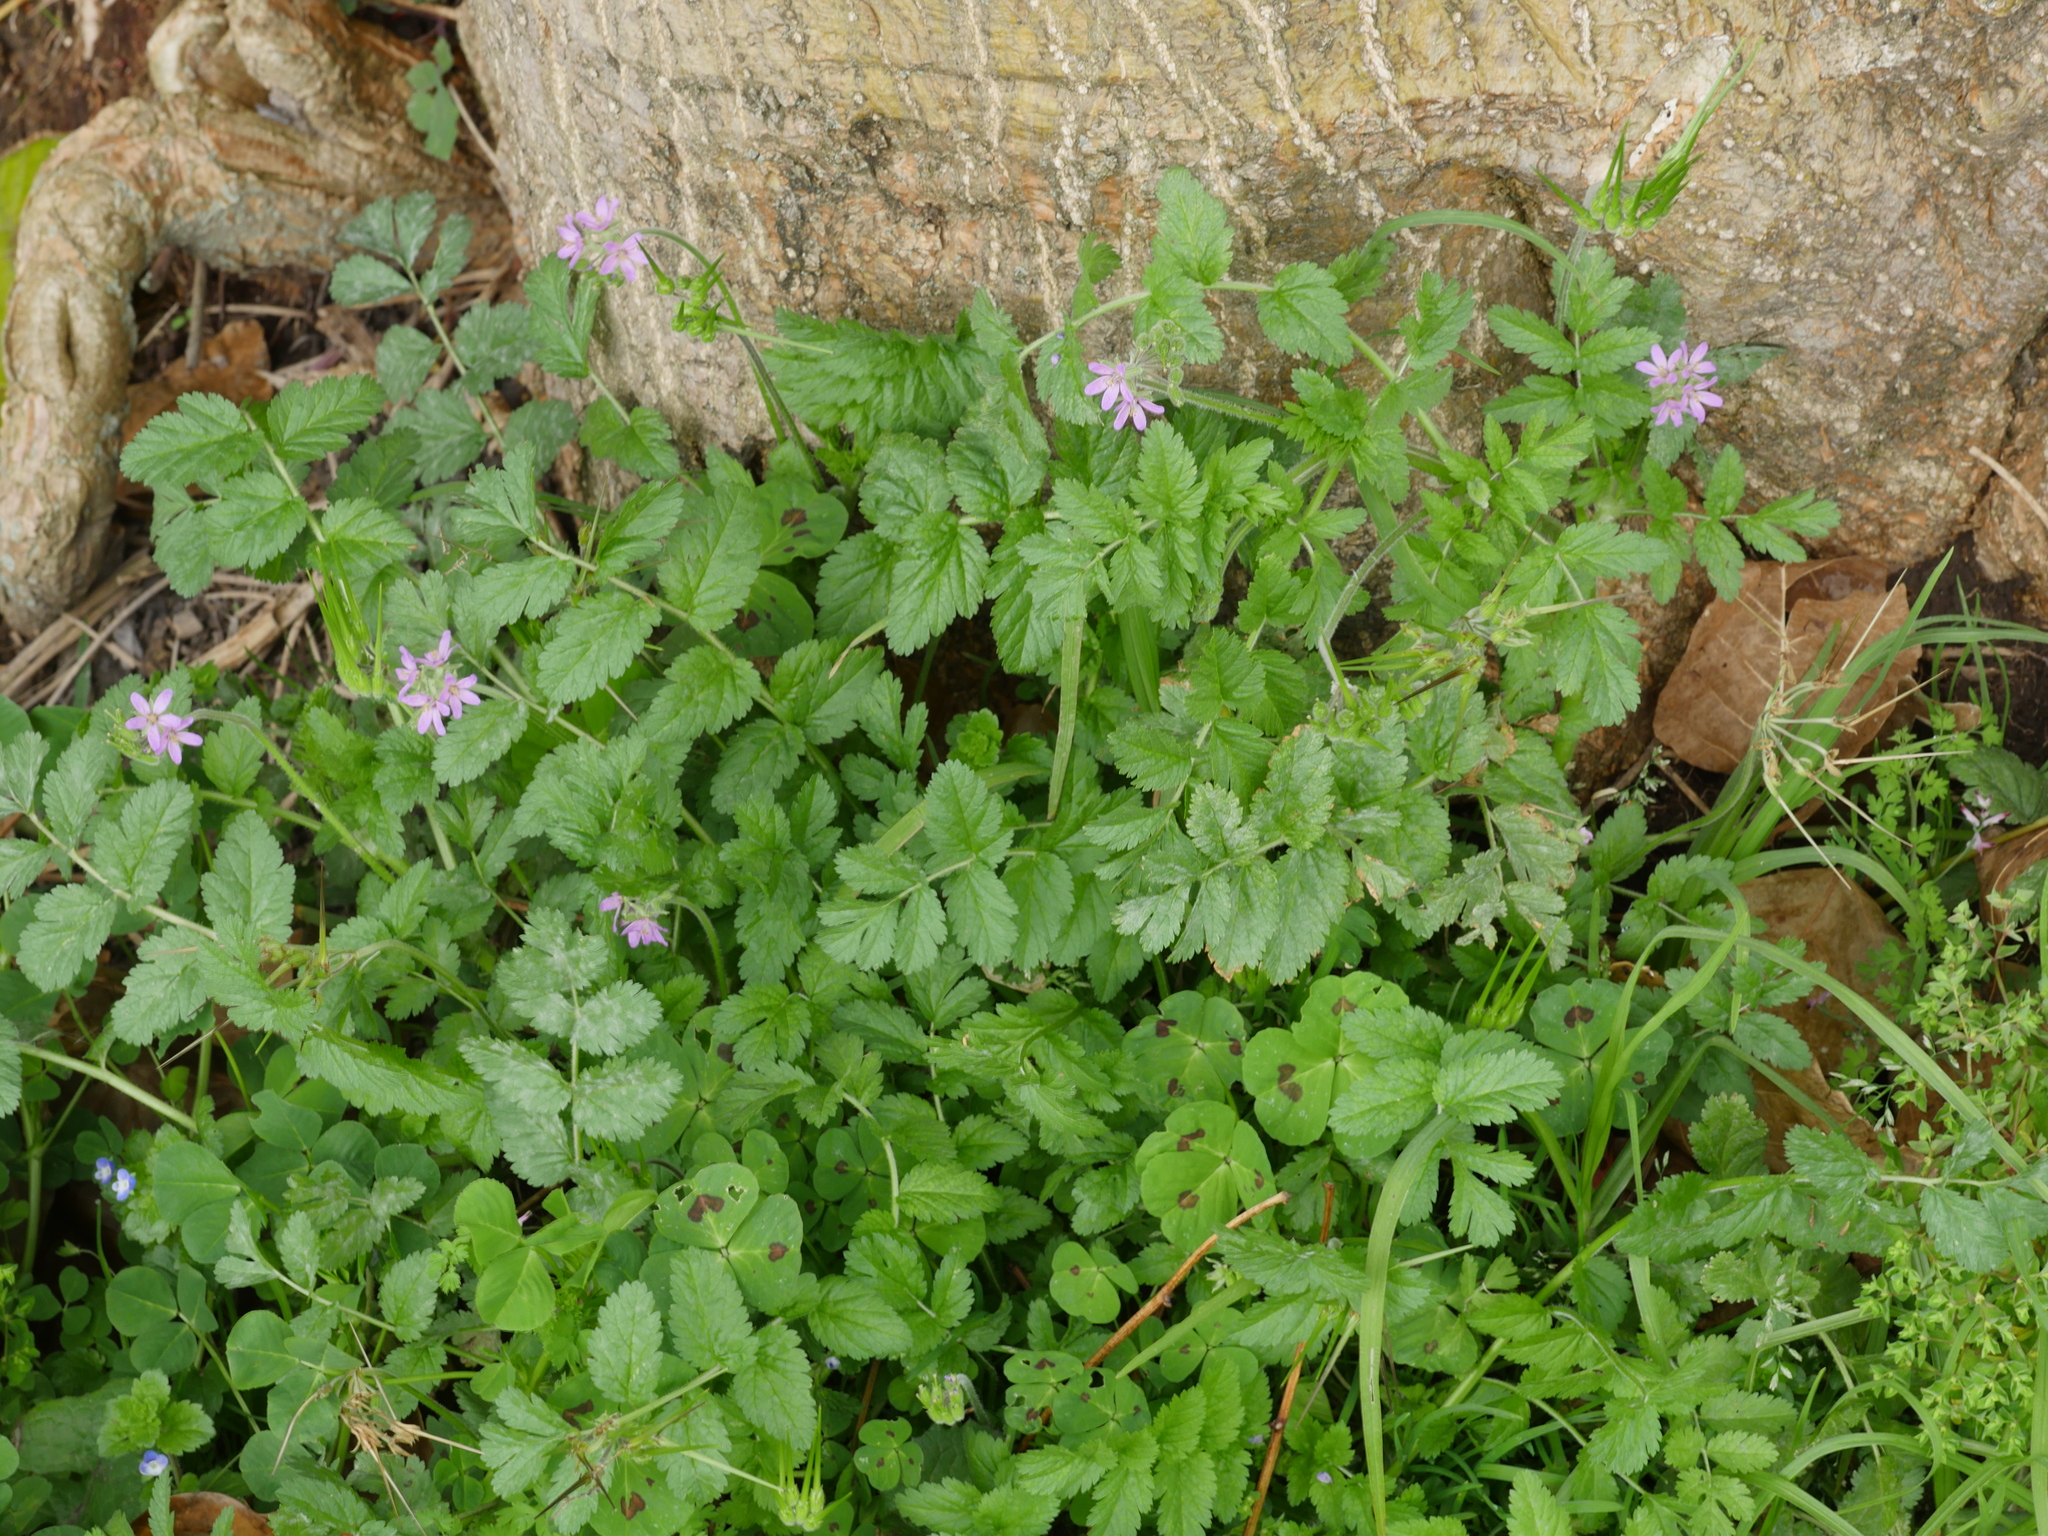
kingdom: Plantae
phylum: Tracheophyta
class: Magnoliopsida
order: Geraniales
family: Geraniaceae
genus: Erodium
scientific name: Erodium moschatum
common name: Musk stork's-bill
